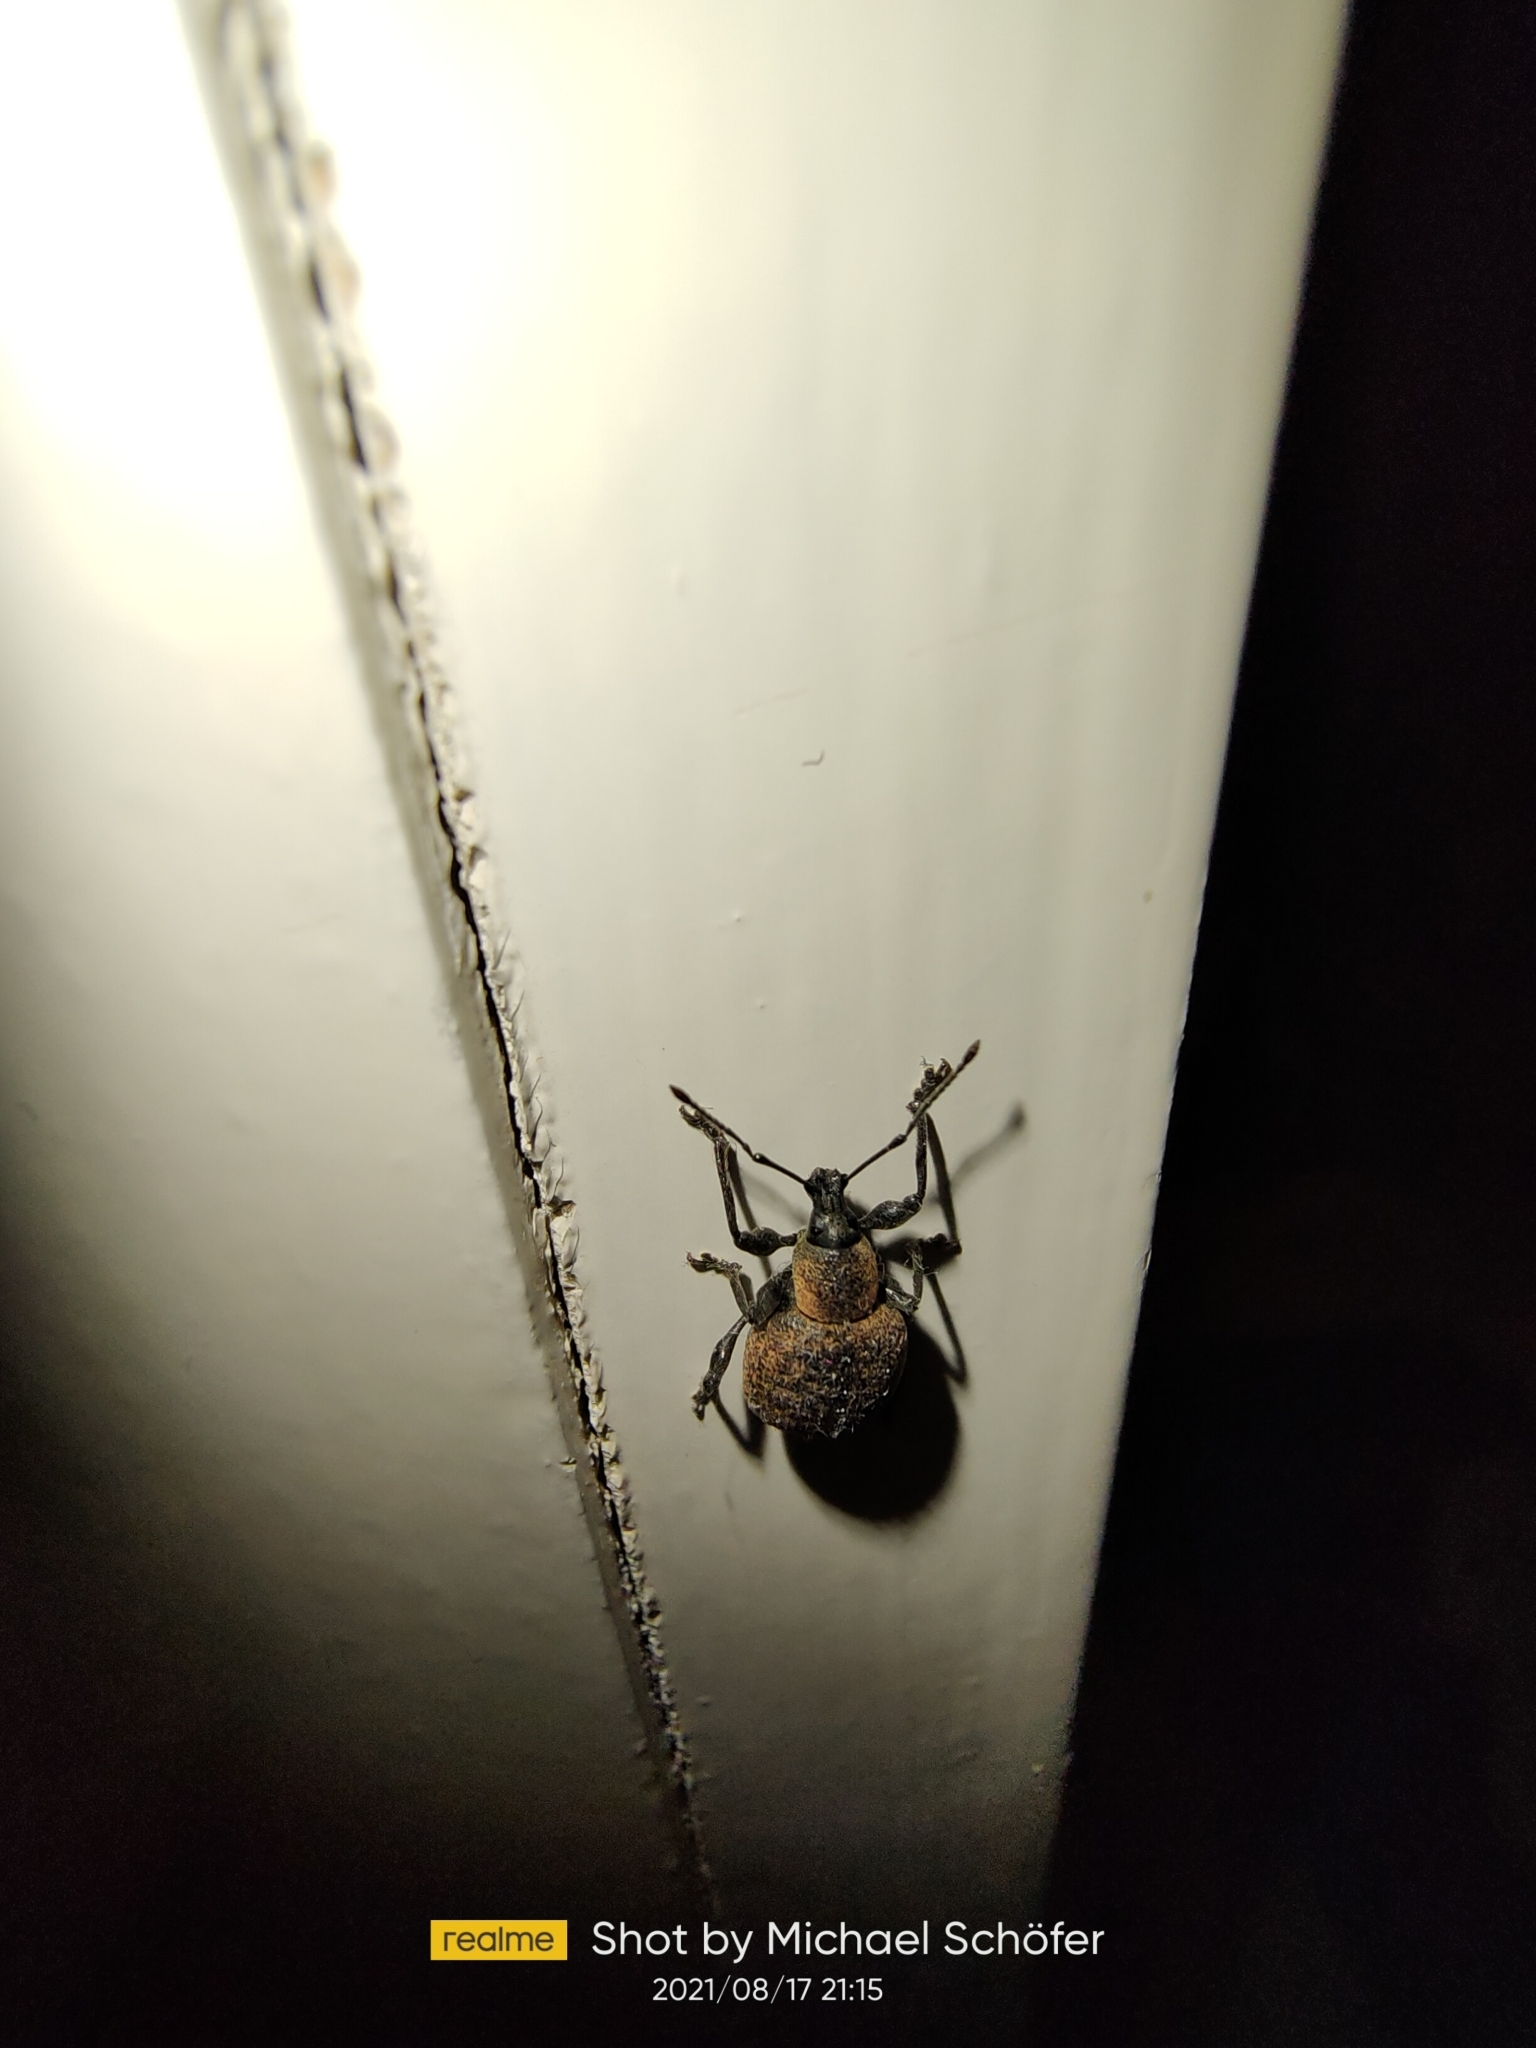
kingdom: Animalia
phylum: Arthropoda
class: Insecta
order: Coleoptera
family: Curculionidae
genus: Otiorhynchus
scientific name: Otiorhynchus
